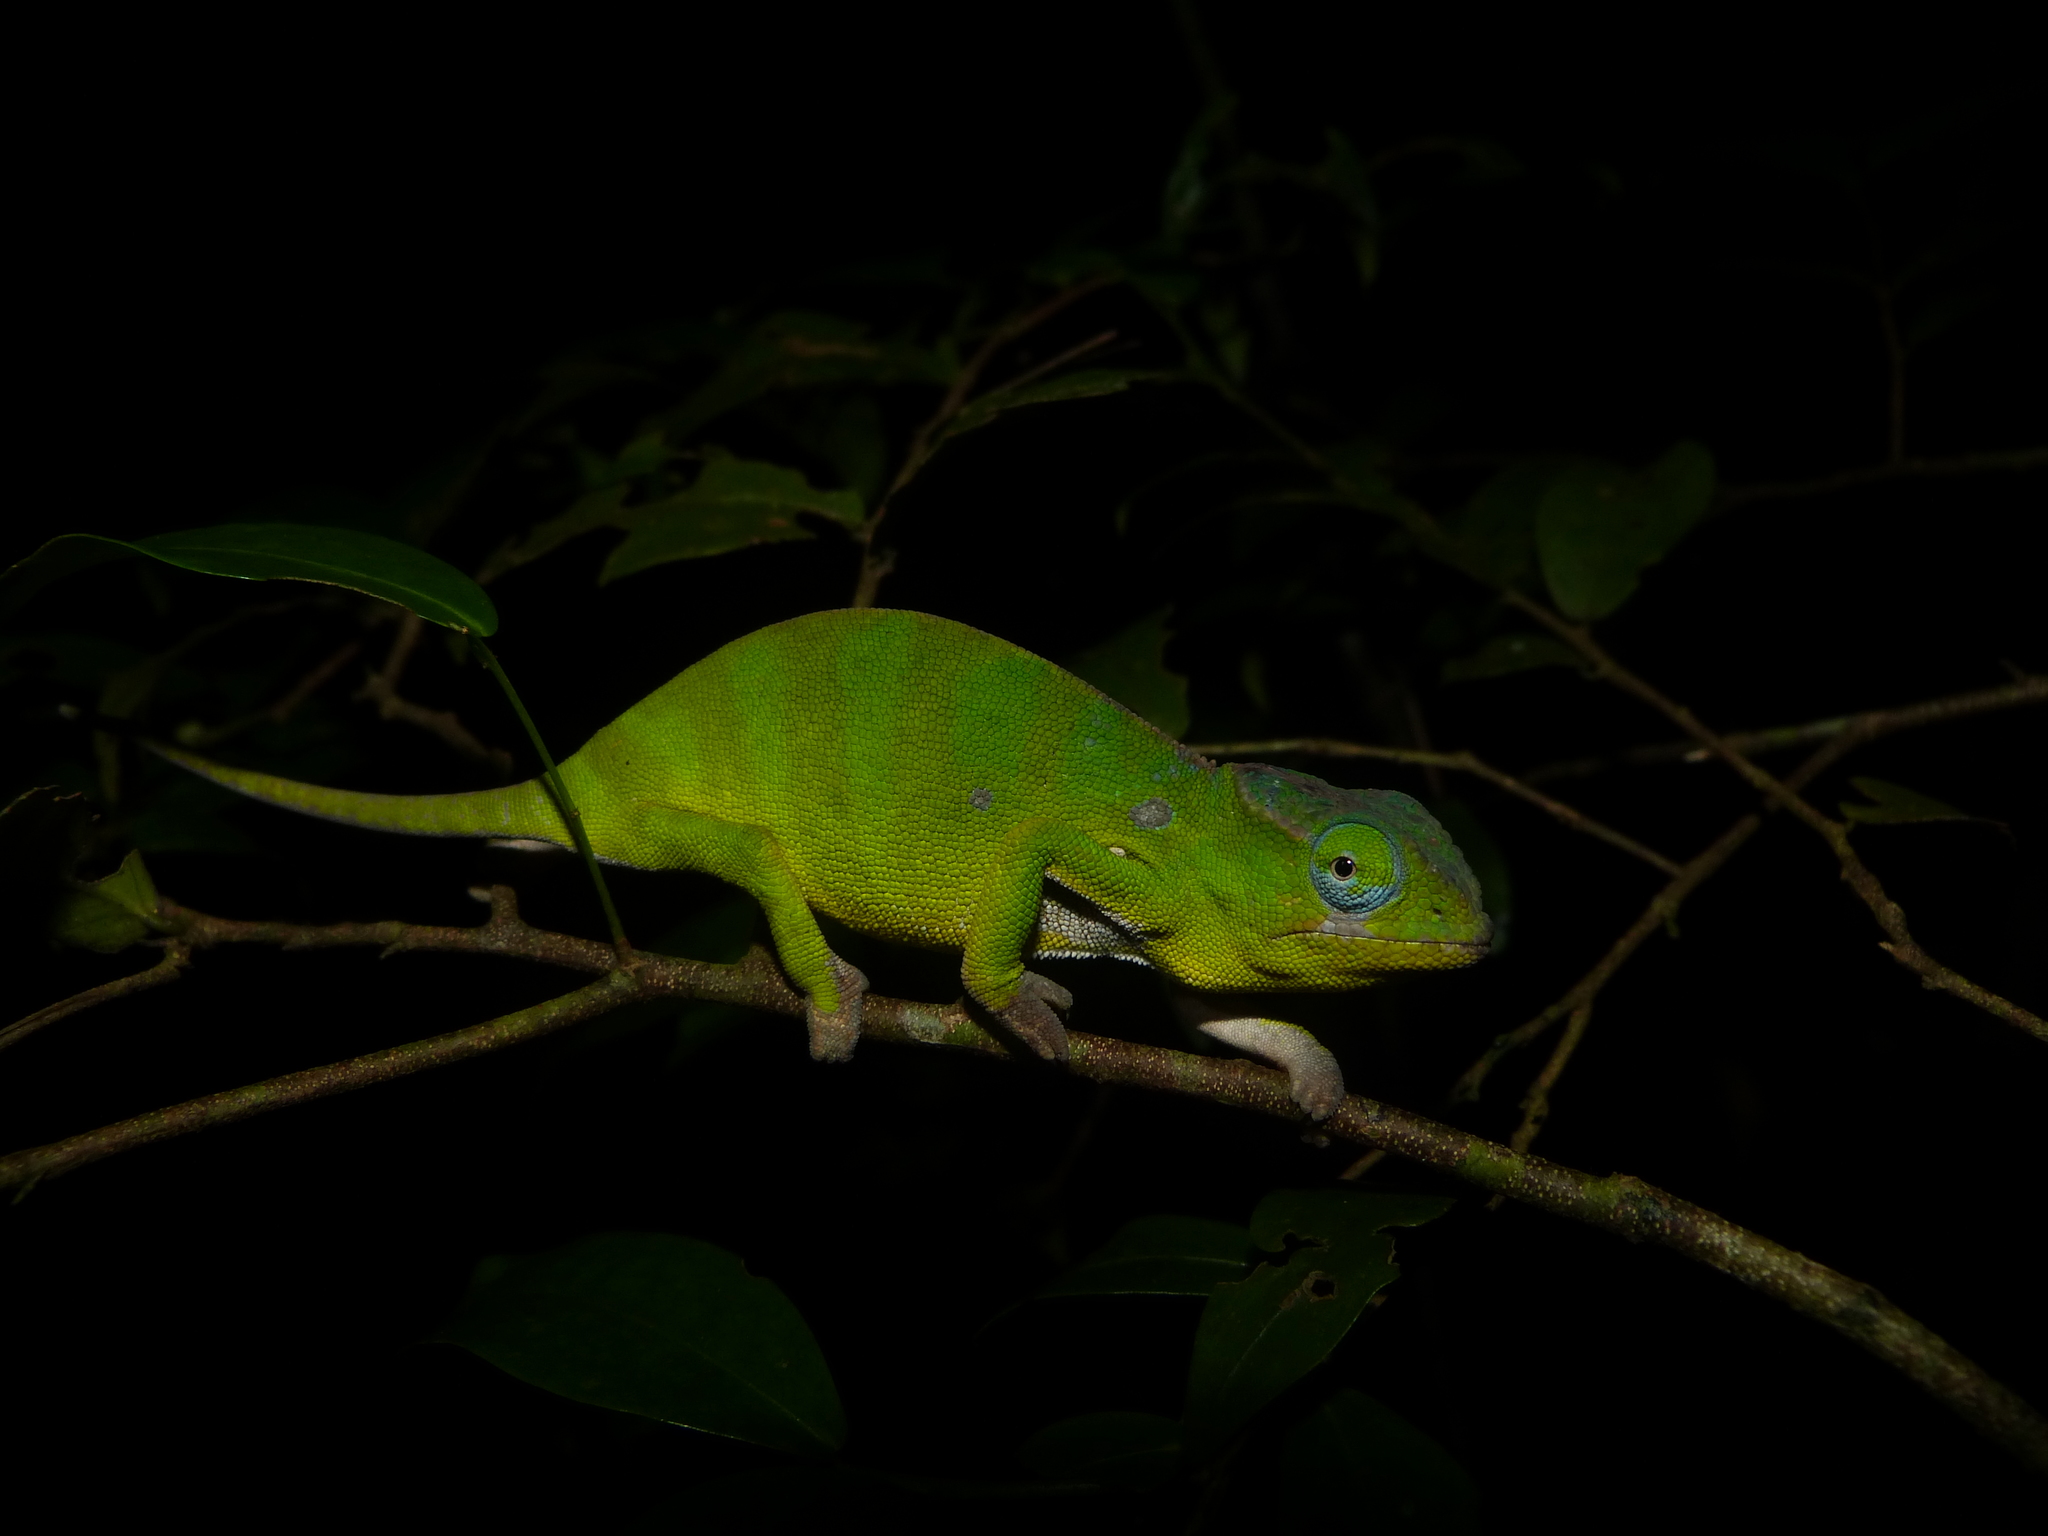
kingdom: Animalia
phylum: Chordata
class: Squamata
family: Chamaeleonidae
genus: Furcifer
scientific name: Furcifer petteri
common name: Petter's chameleon
